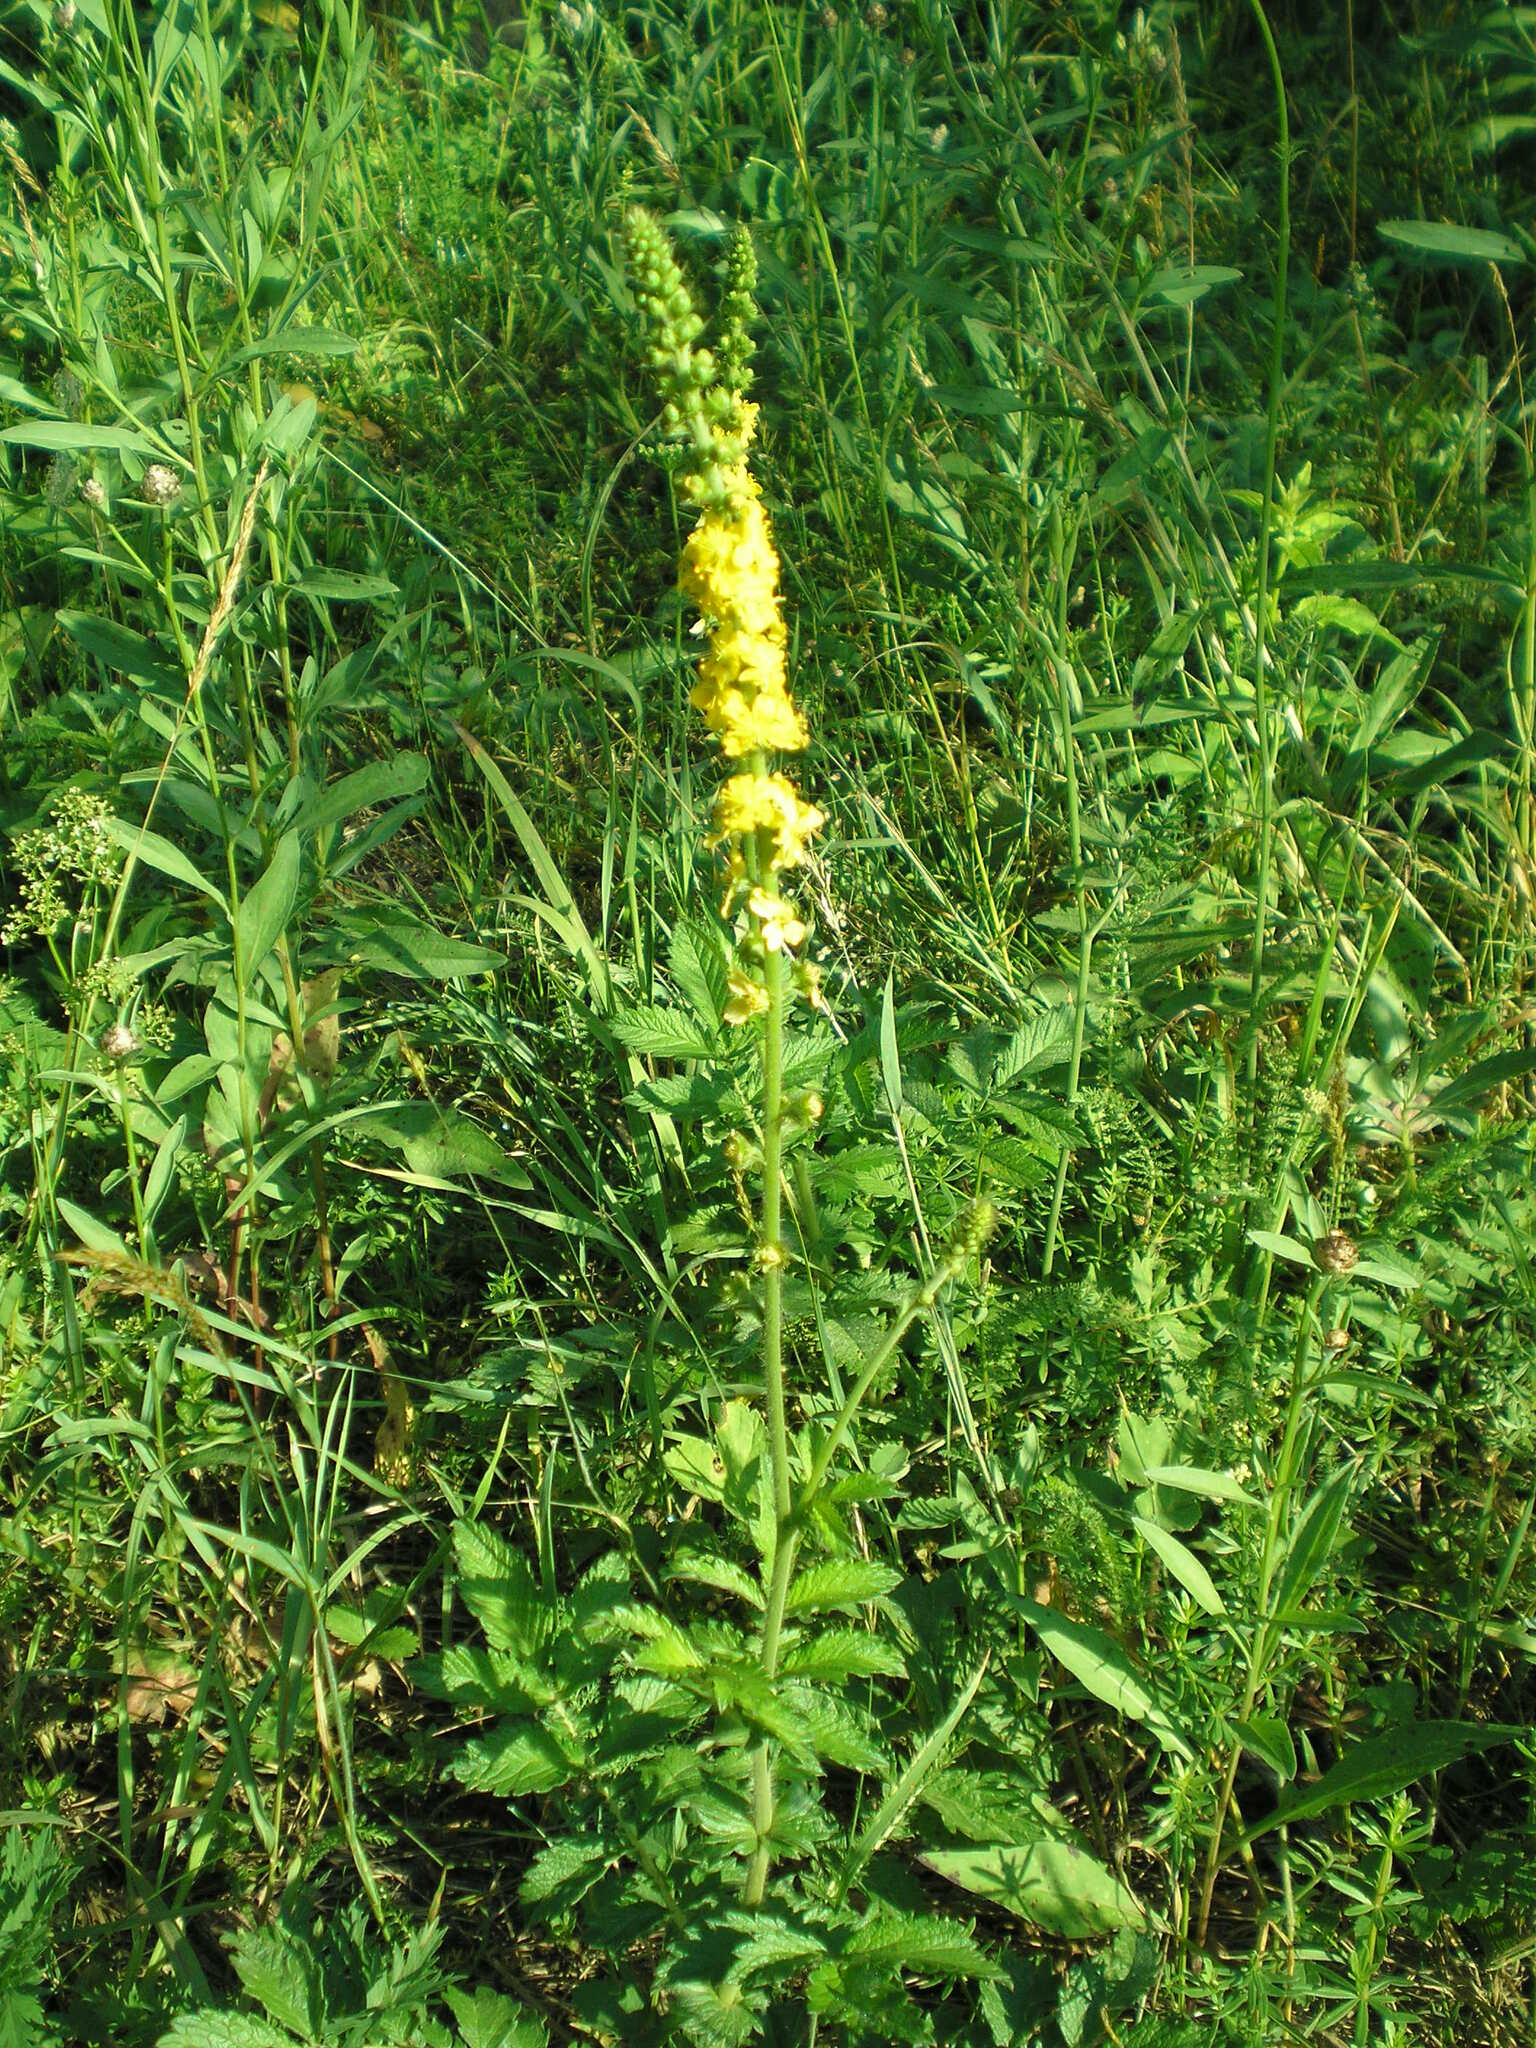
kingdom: Plantae
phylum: Tracheophyta
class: Magnoliopsida
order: Rosales
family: Rosaceae
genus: Agrimonia
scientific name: Agrimonia eupatoria
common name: Agrimony
